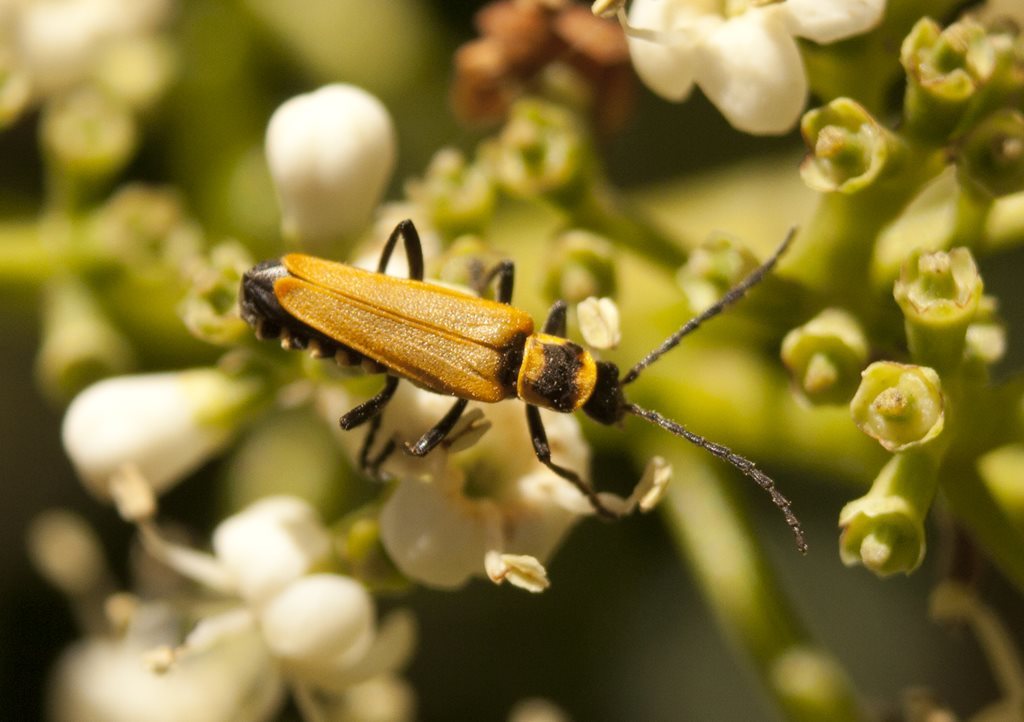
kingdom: Animalia
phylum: Arthropoda
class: Insecta
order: Coleoptera
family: Cantharidae
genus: Chauliognathus
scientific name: Chauliognathus
